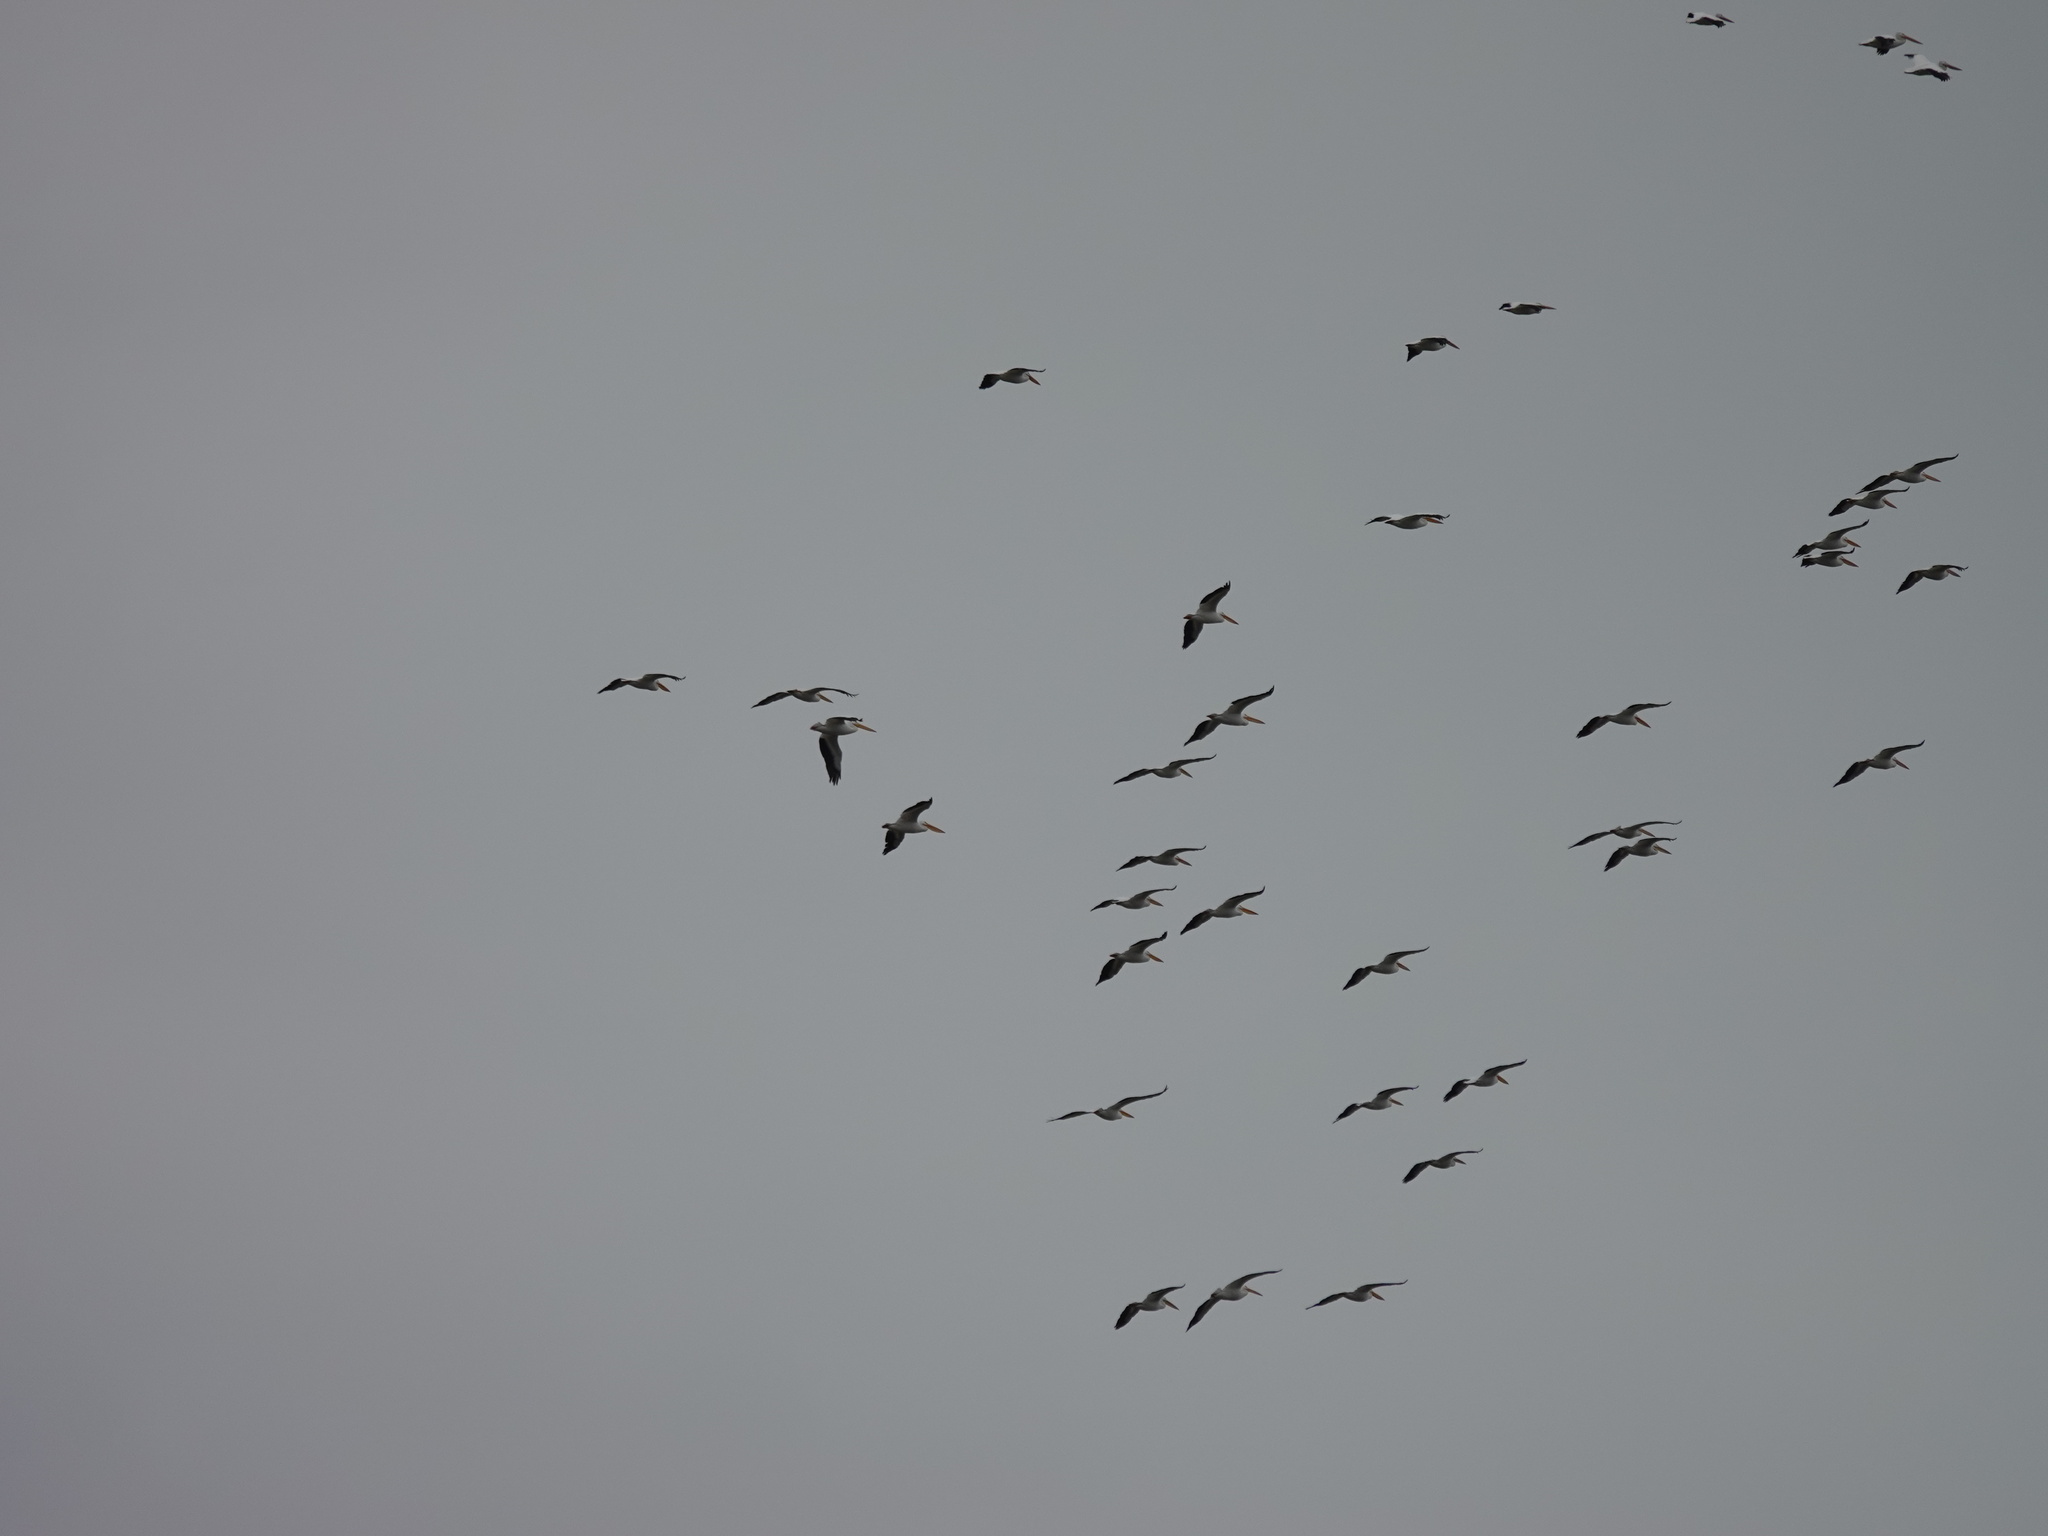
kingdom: Animalia
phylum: Chordata
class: Aves
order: Pelecaniformes
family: Pelecanidae
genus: Pelecanus
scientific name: Pelecanus erythrorhynchos
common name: American white pelican
